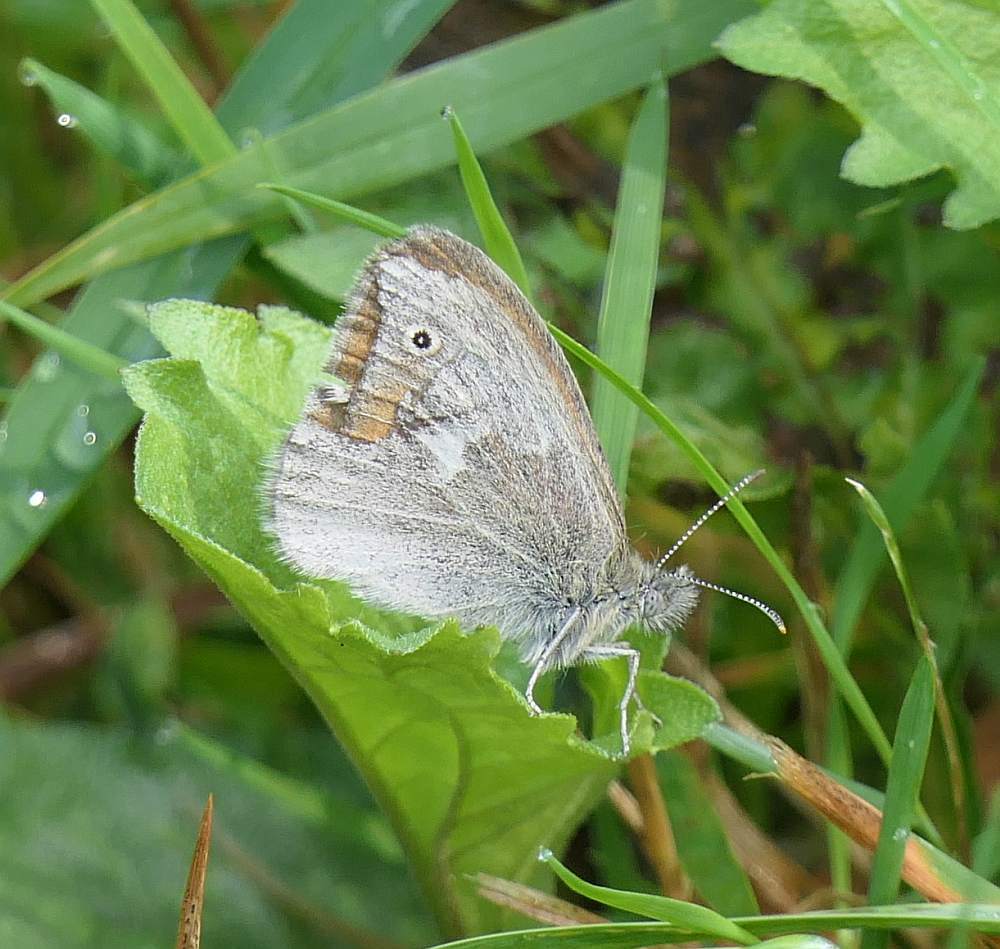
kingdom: Animalia
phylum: Arthropoda
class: Insecta
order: Lepidoptera
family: Nymphalidae
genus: Coenonympha
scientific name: Coenonympha california
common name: Common ringlet
